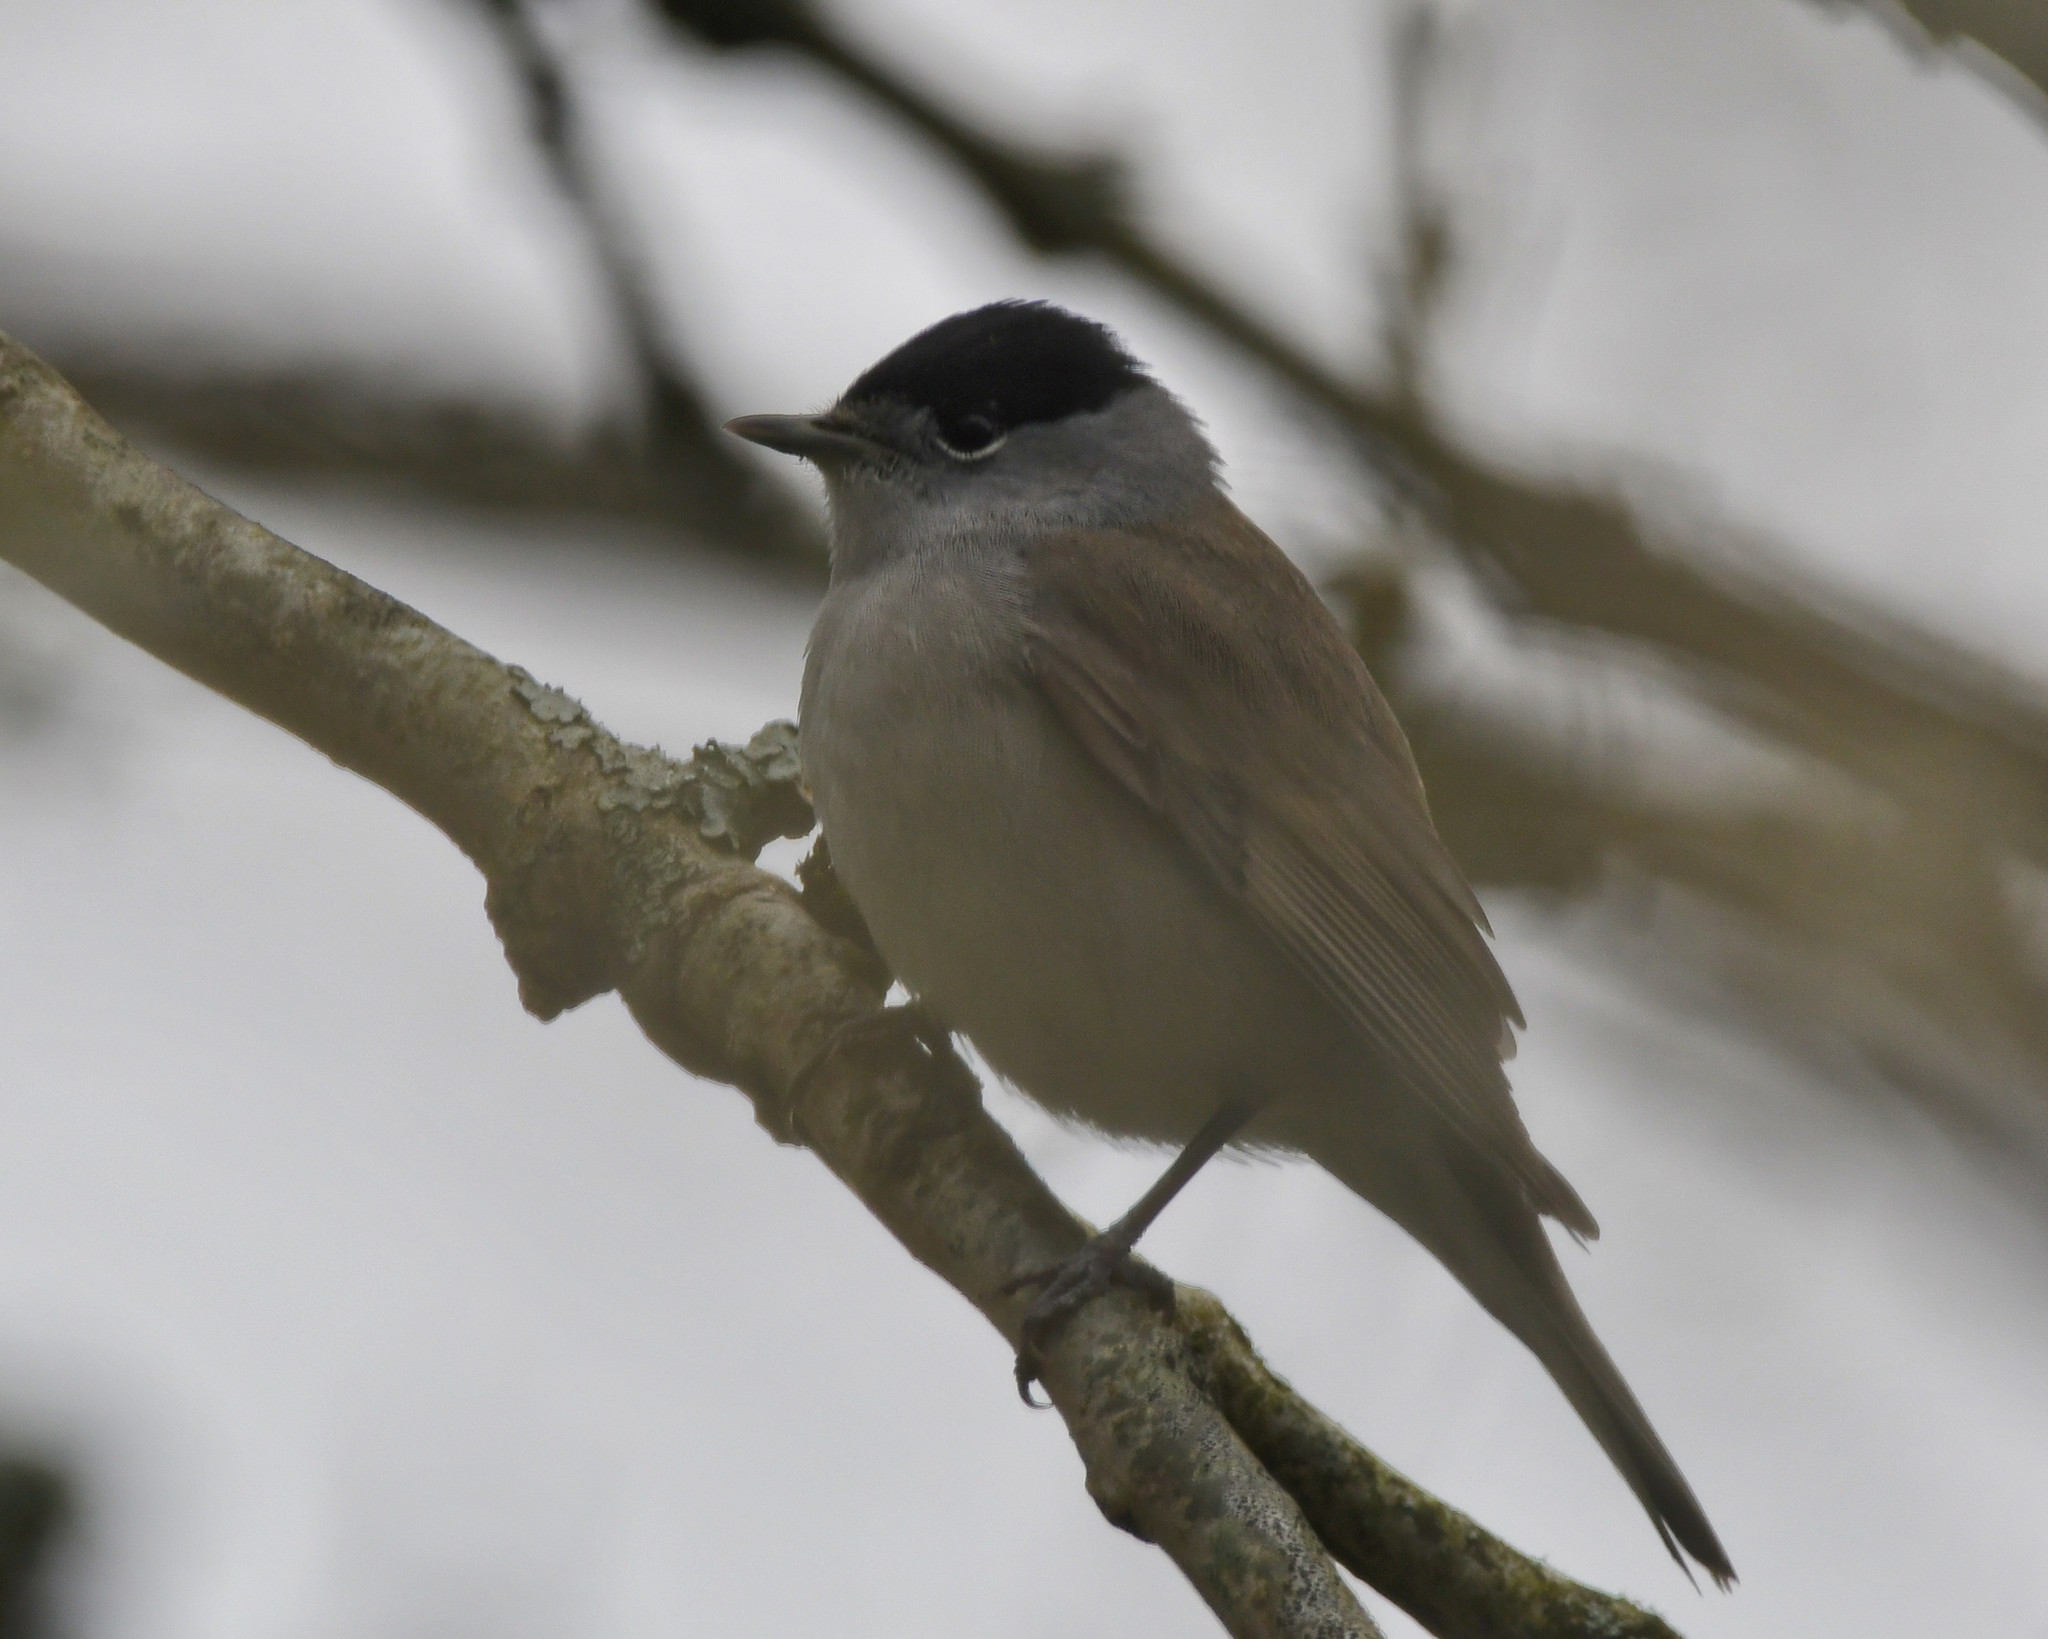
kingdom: Animalia
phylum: Chordata
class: Aves
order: Passeriformes
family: Sylviidae
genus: Sylvia
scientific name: Sylvia atricapilla
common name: Eurasian blackcap
